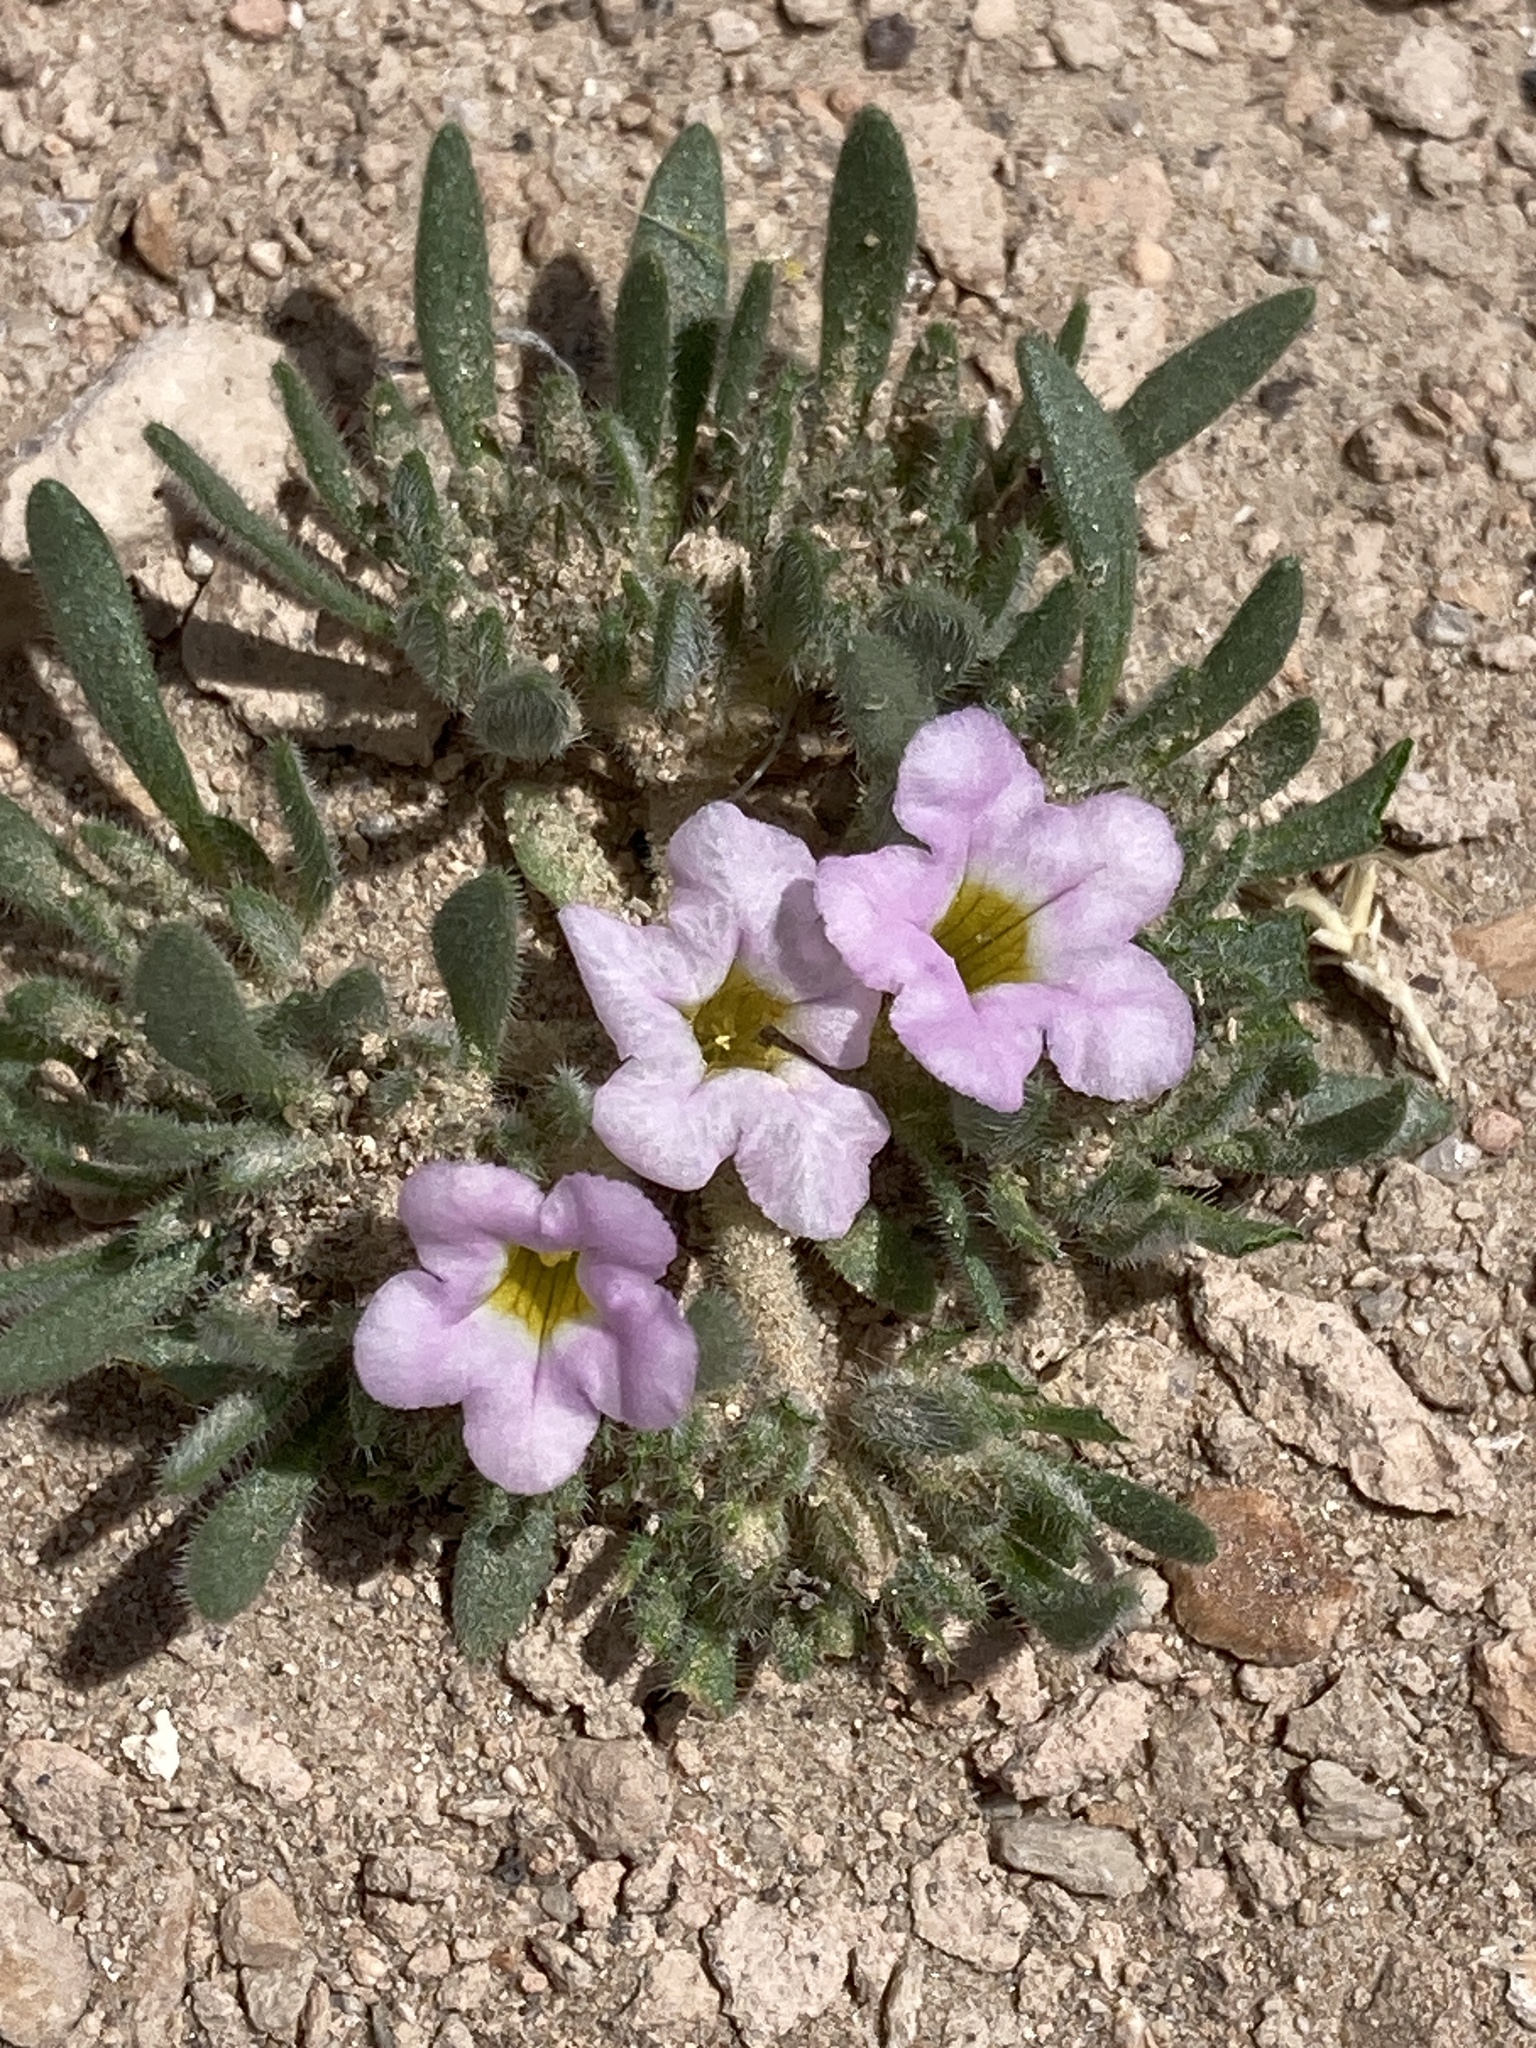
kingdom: Plantae
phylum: Tracheophyta
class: Magnoliopsida
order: Boraginales
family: Namaceae
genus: Nama
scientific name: Nama aretioides
